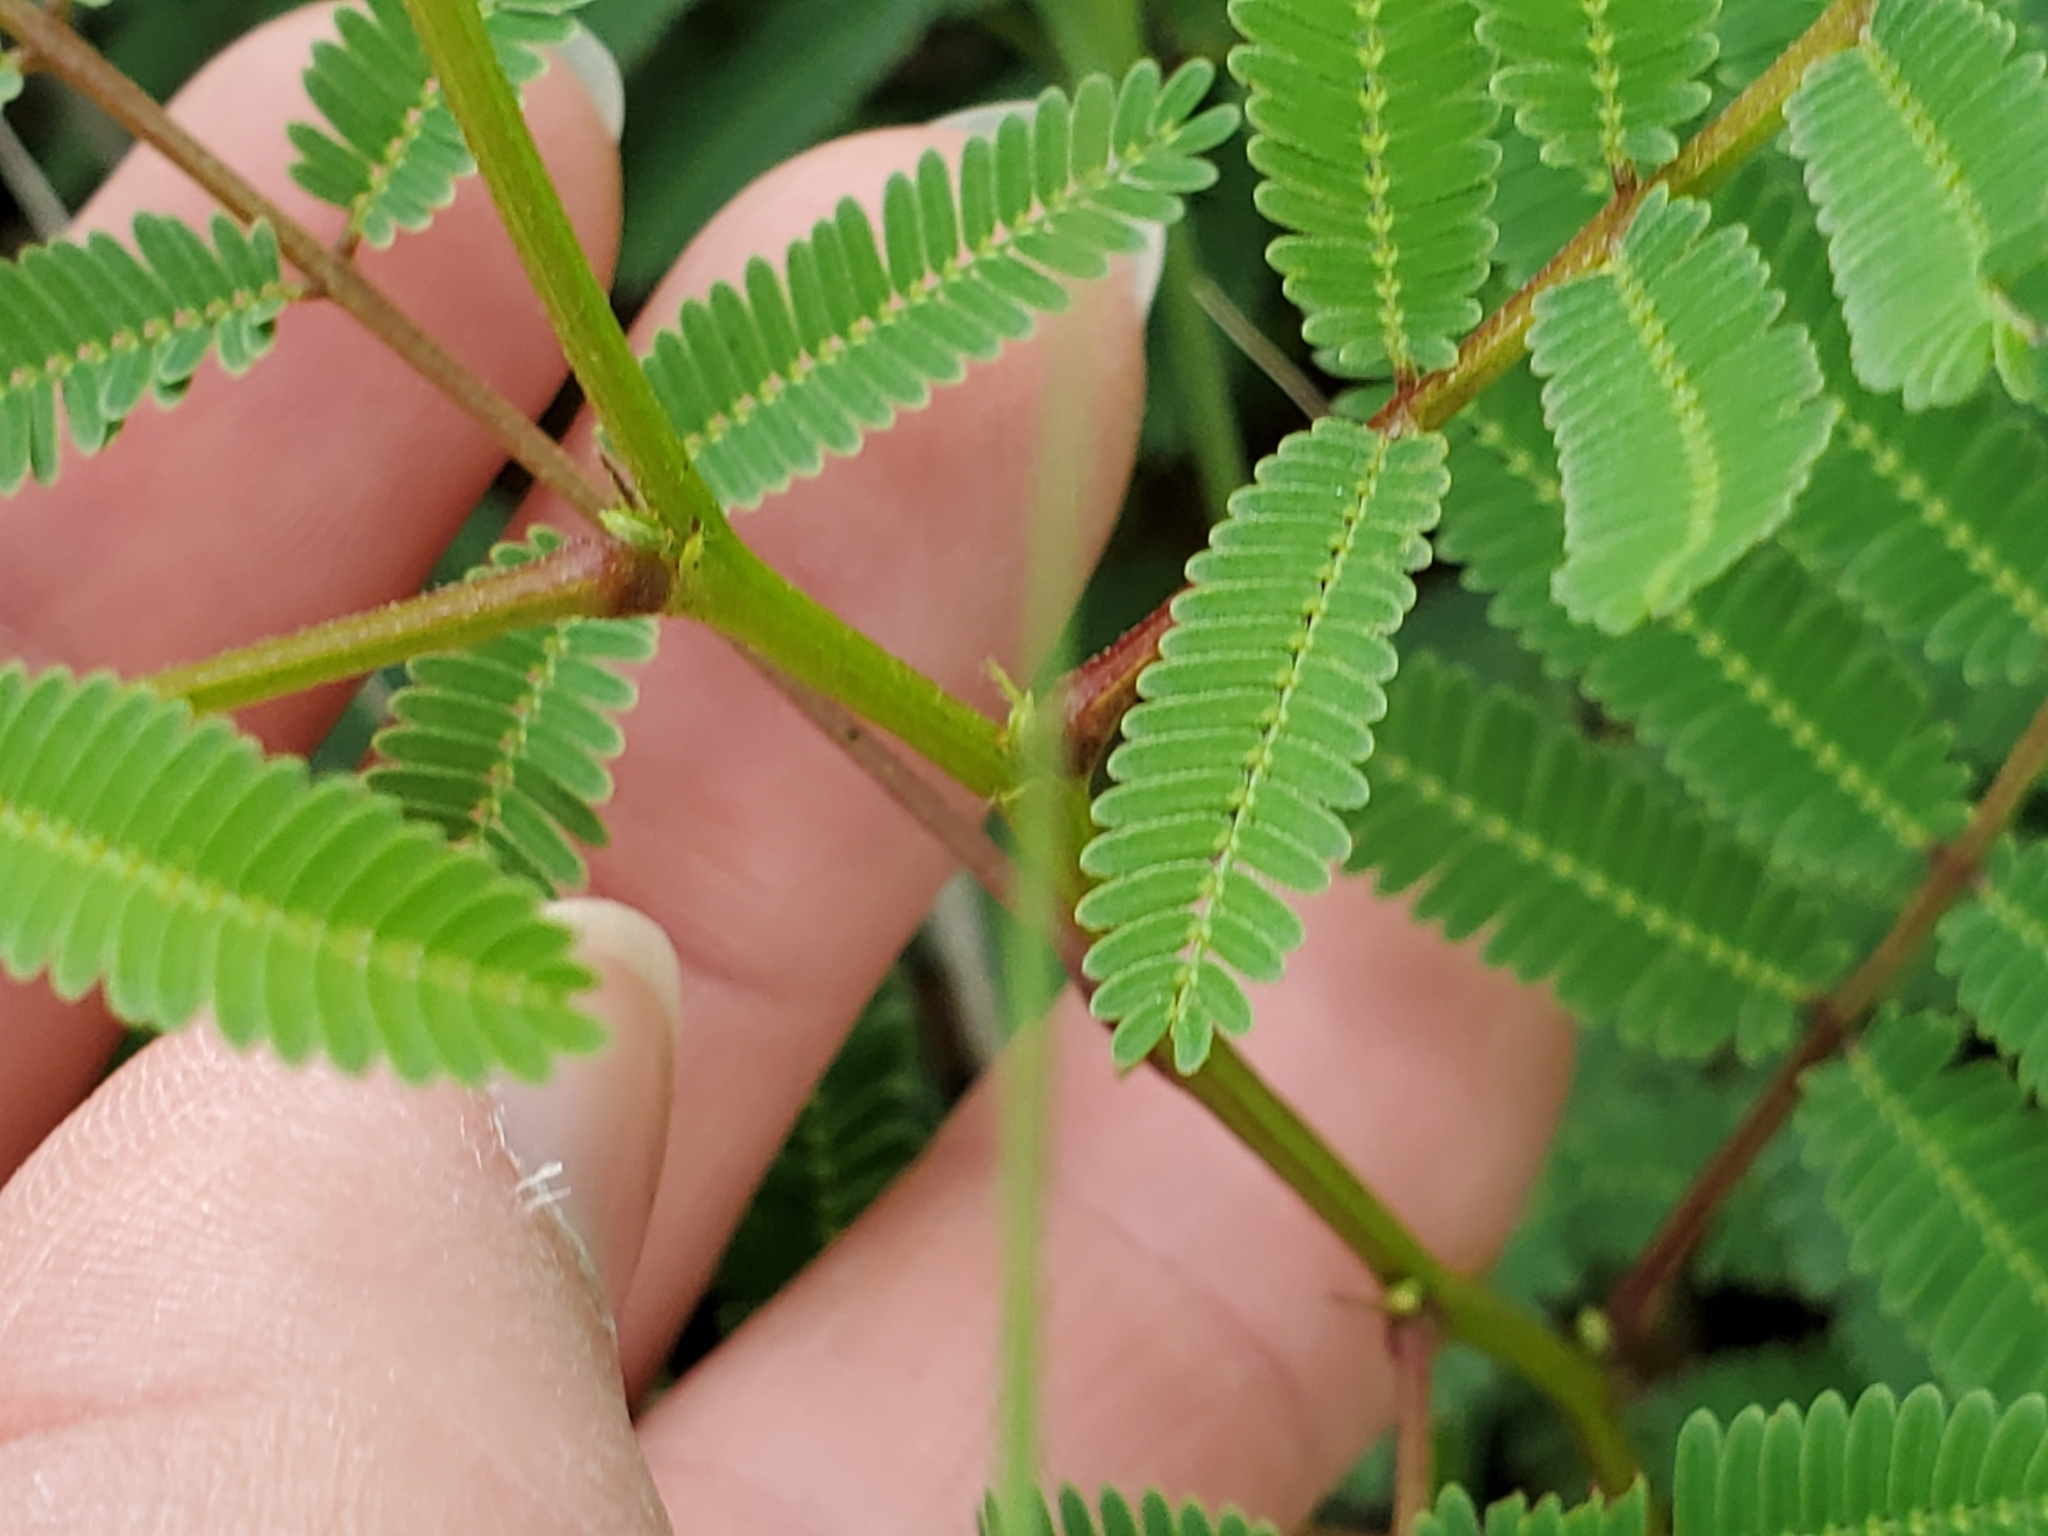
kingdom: Plantae
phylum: Tracheophyta
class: Magnoliopsida
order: Fabales
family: Fabaceae
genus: Acaciella
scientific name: Acaciella angustissima
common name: Prairie acacia
